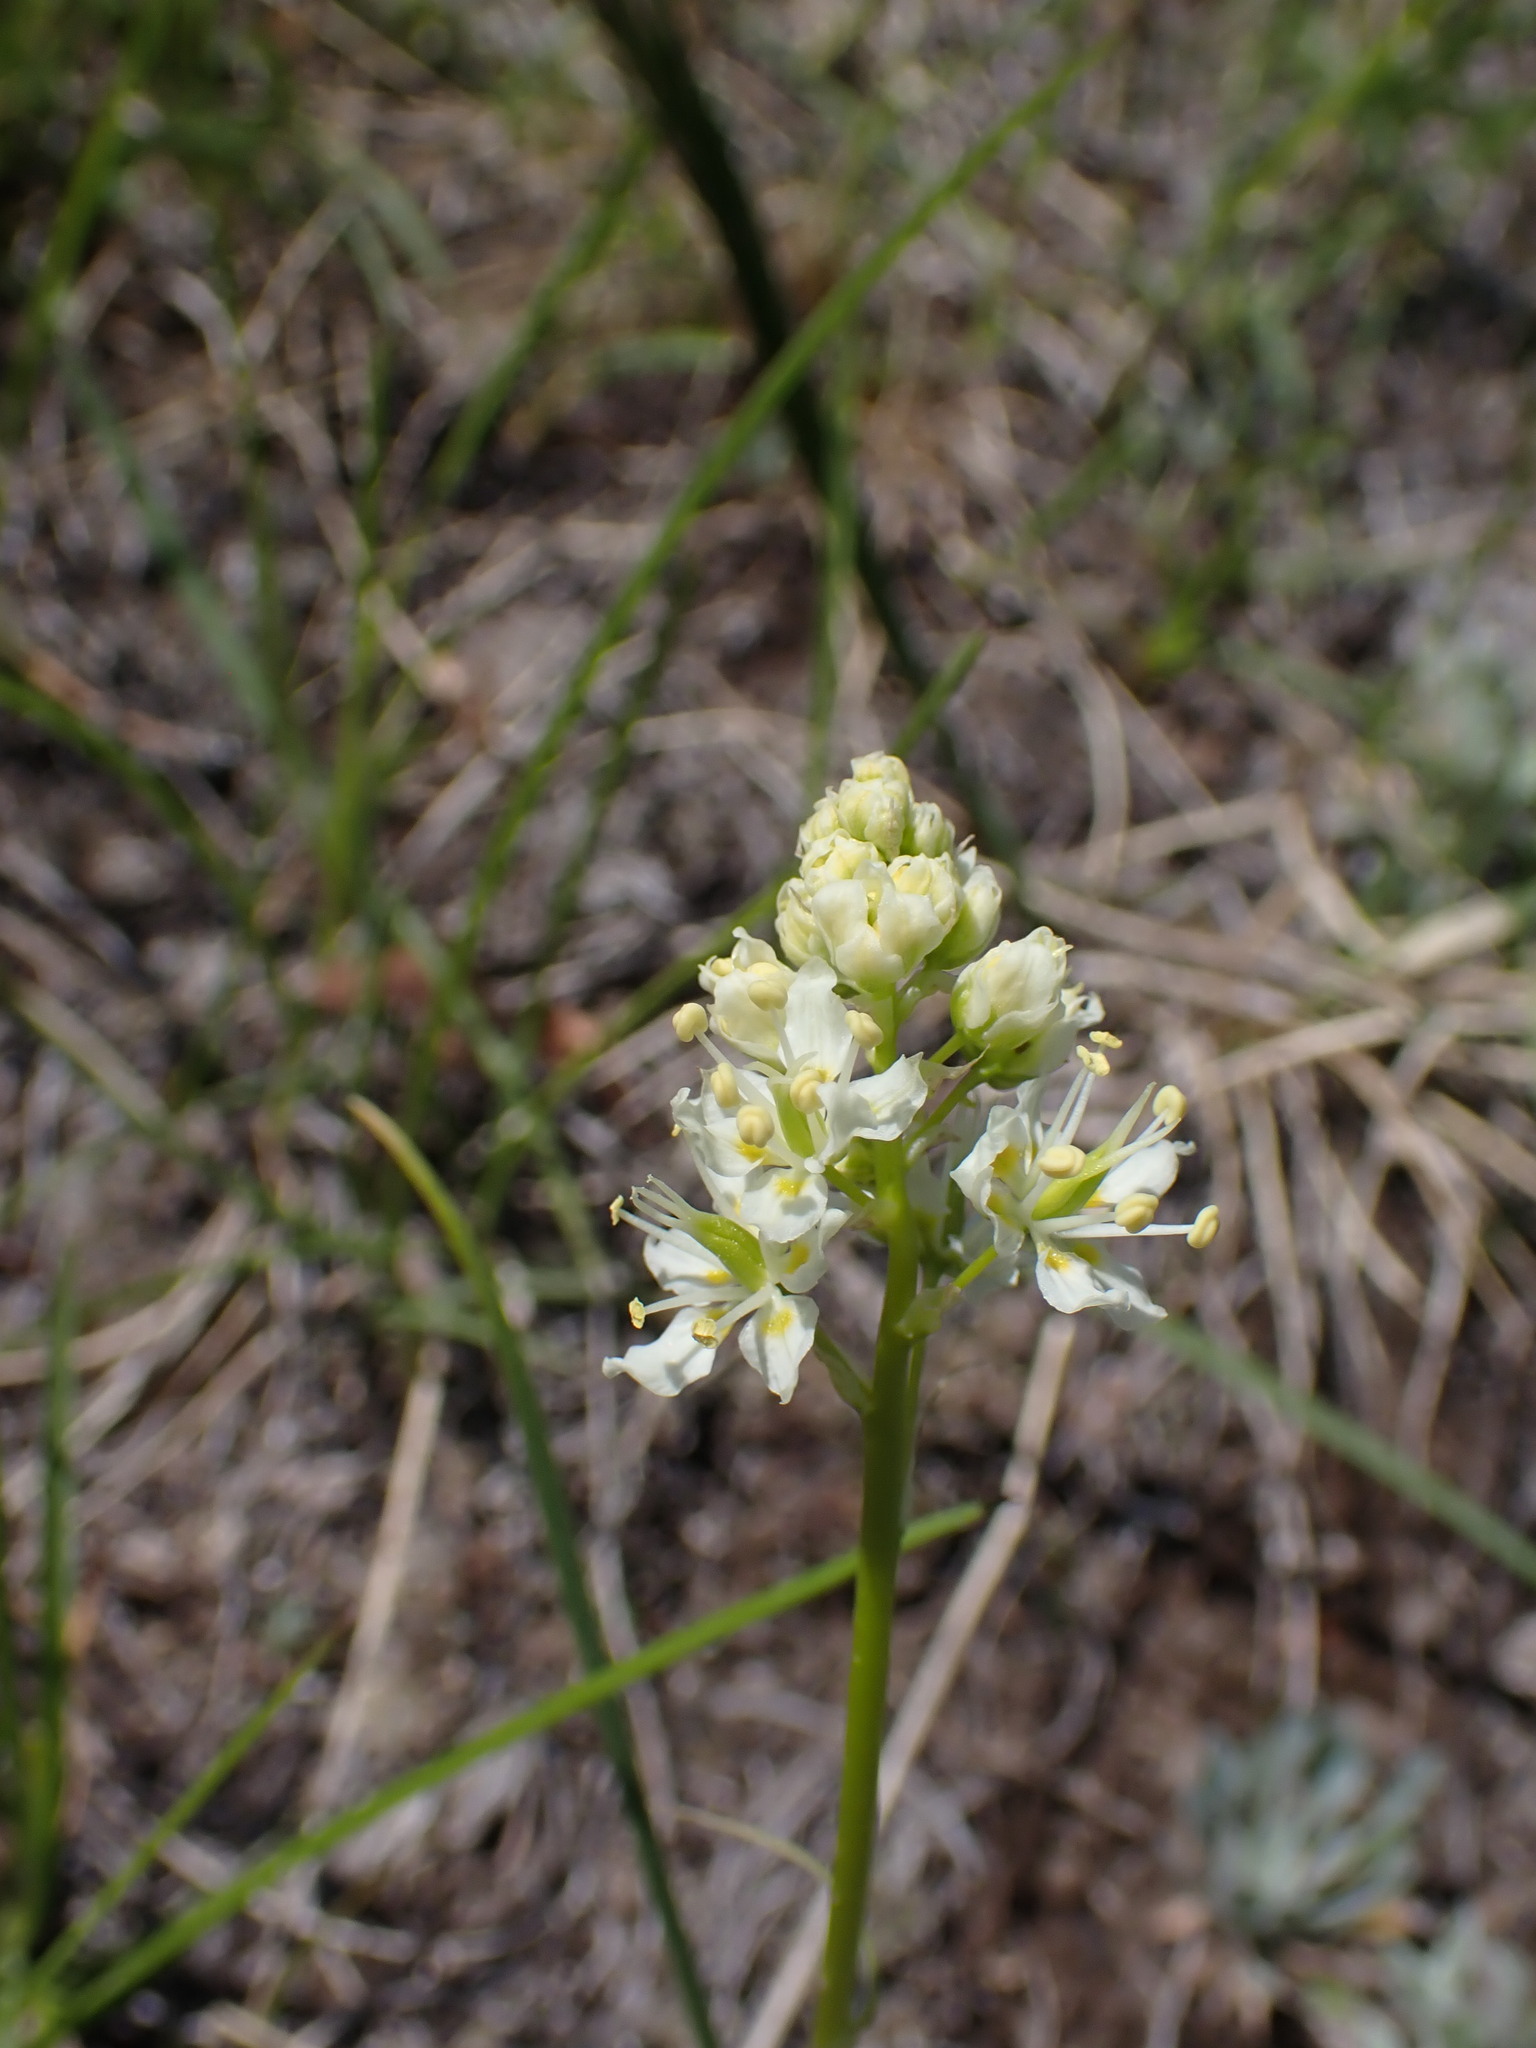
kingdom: Plantae
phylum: Tracheophyta
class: Liliopsida
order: Liliales
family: Melanthiaceae
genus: Toxicoscordion
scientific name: Toxicoscordion venenosum
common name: Meadow death camas
